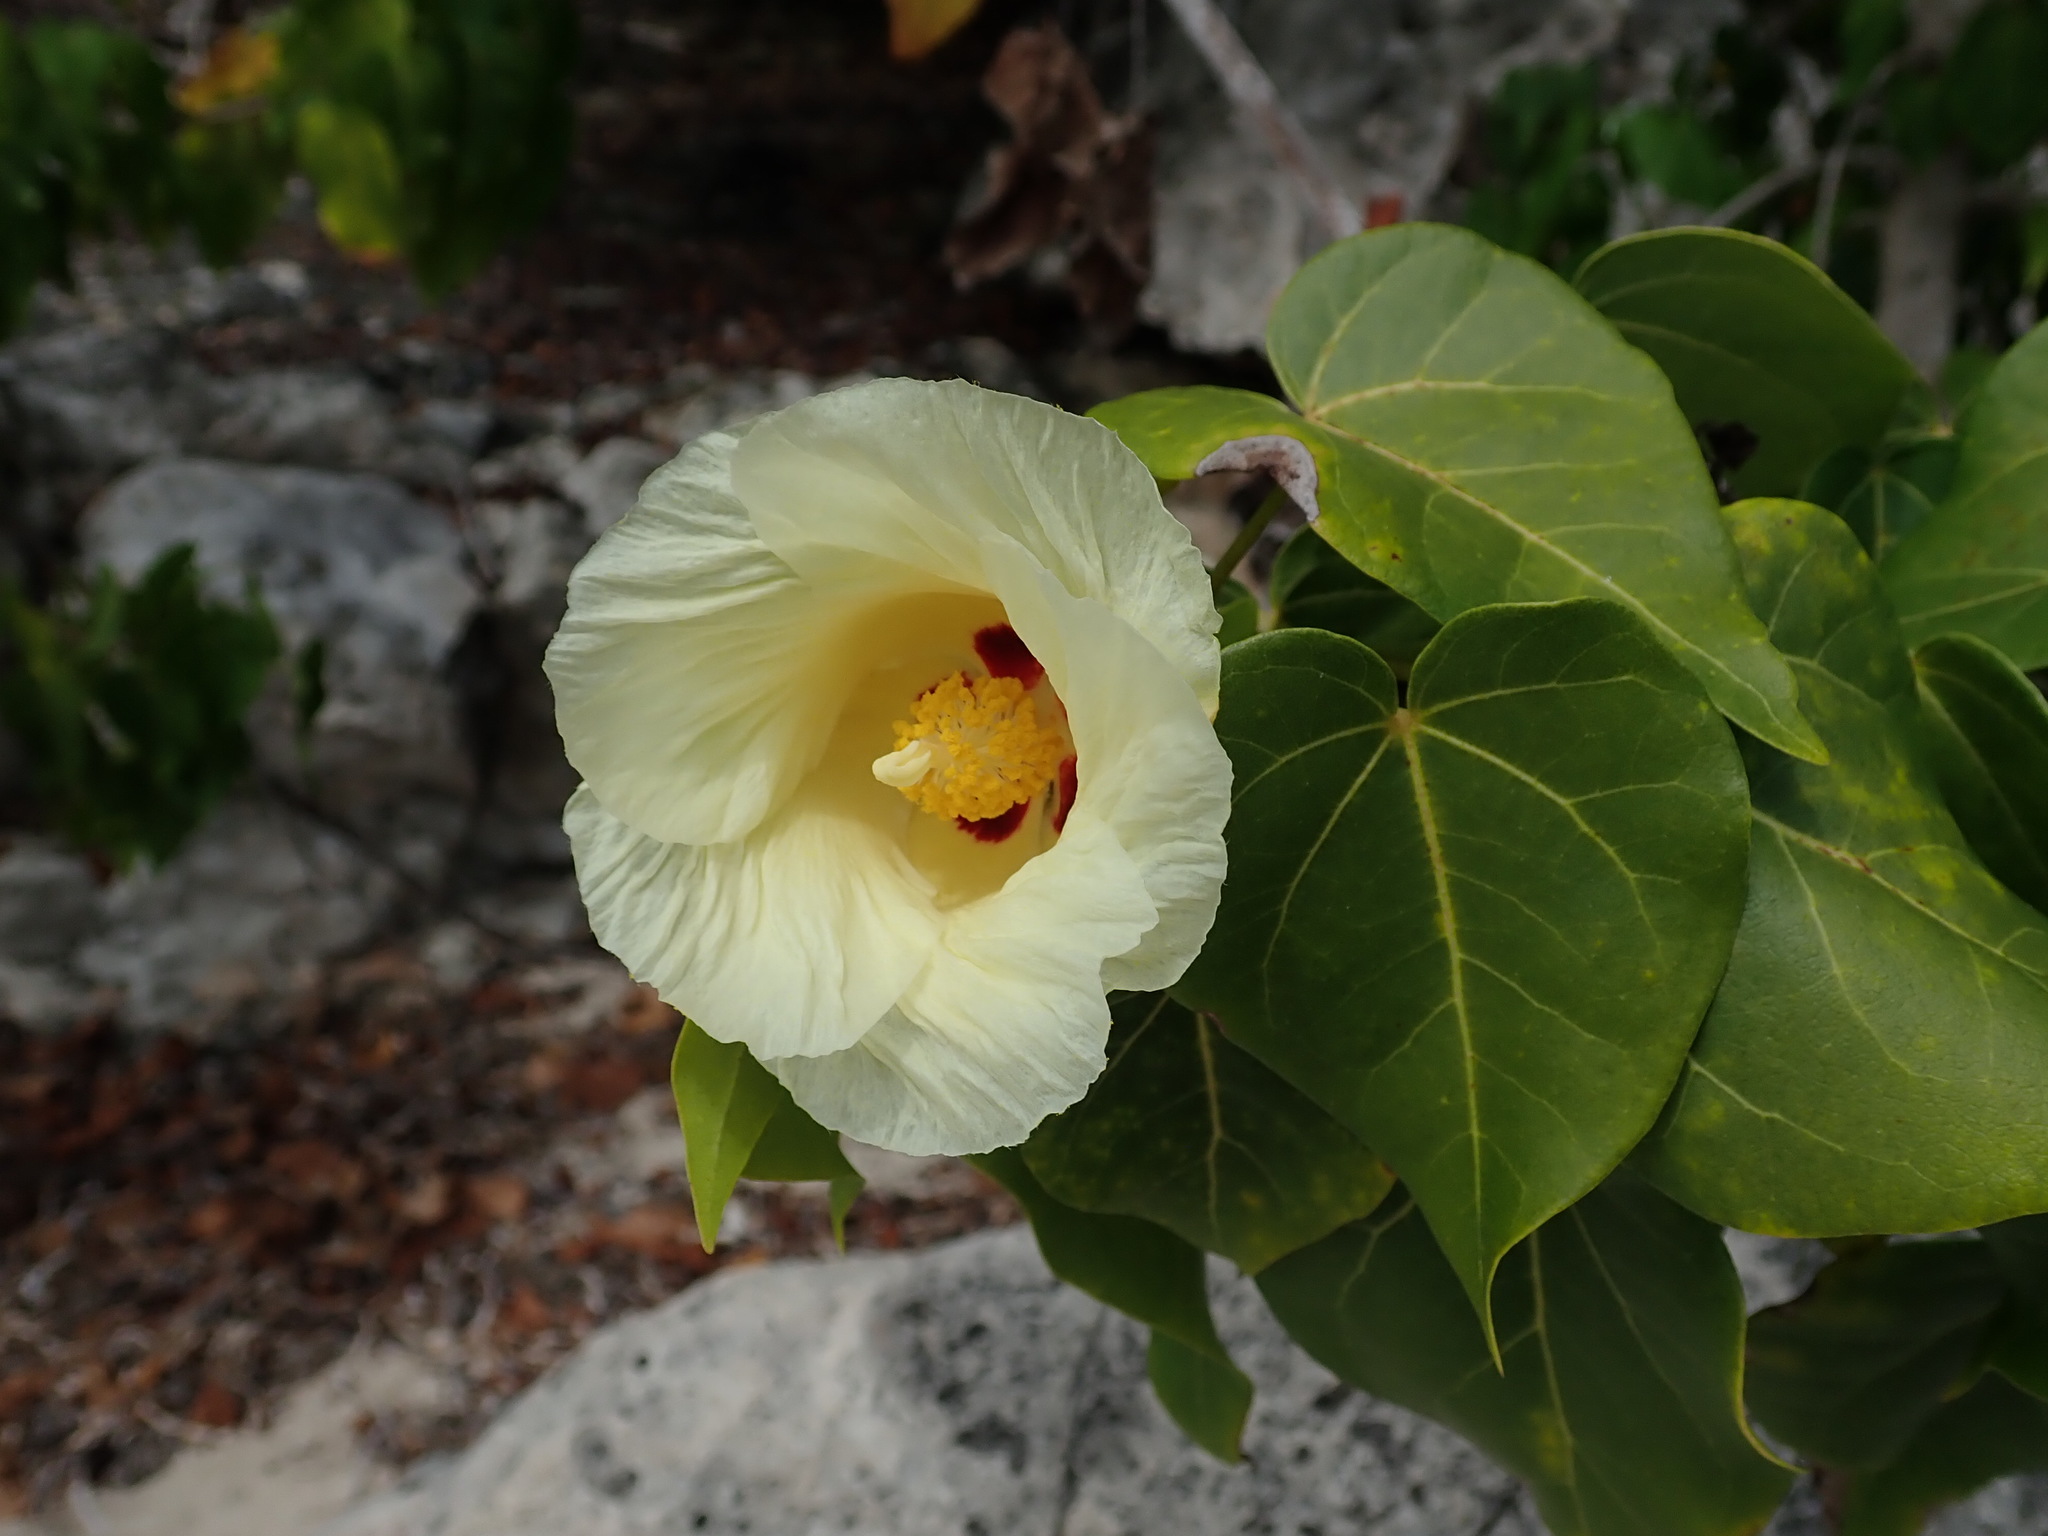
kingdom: Plantae
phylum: Tracheophyta
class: Magnoliopsida
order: Malvales
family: Malvaceae
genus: Thespesia
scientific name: Thespesia populnea
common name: Seaside mahoe
